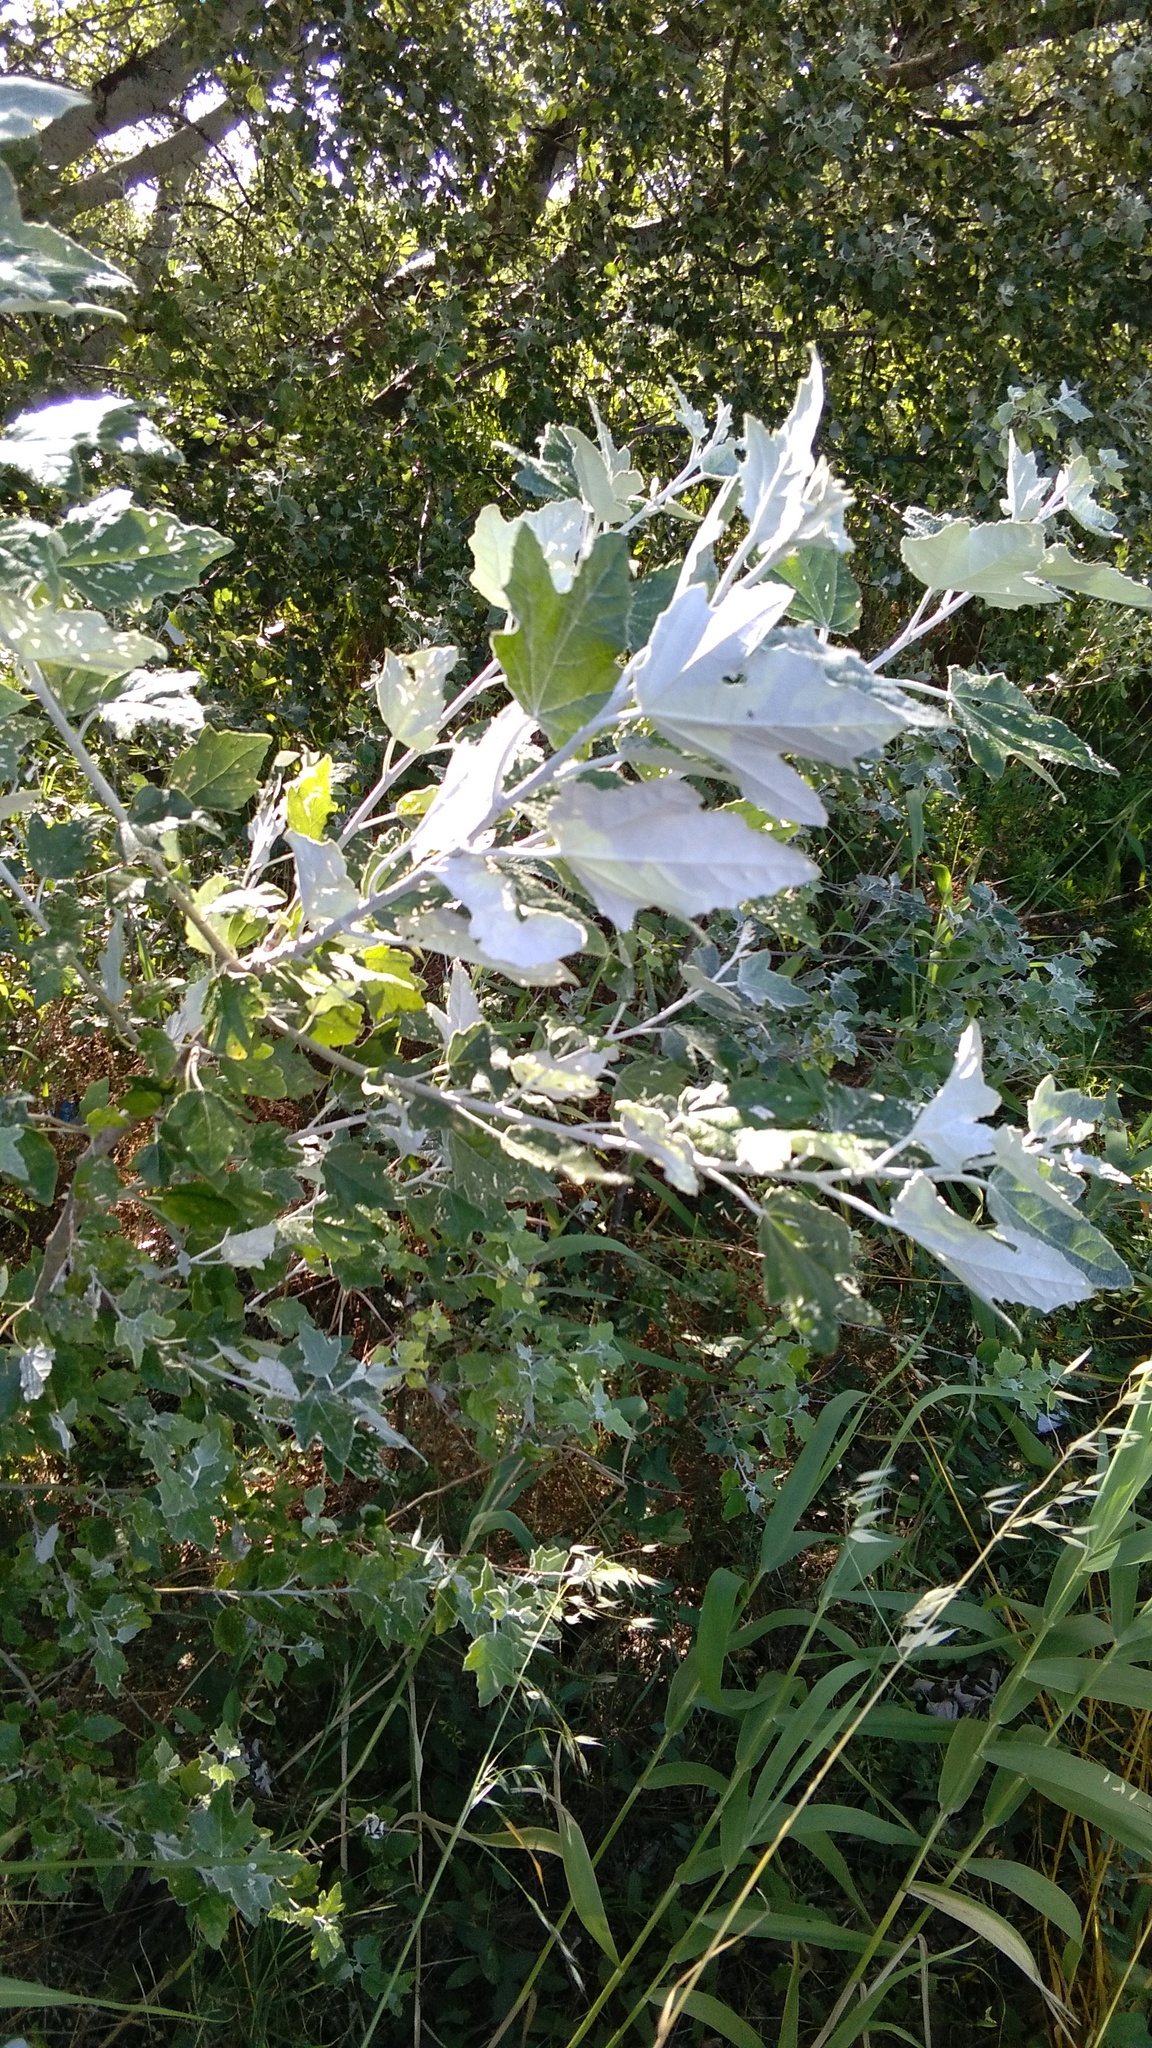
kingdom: Plantae
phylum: Tracheophyta
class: Magnoliopsida
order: Malpighiales
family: Salicaceae
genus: Populus
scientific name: Populus alba
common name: White poplar
